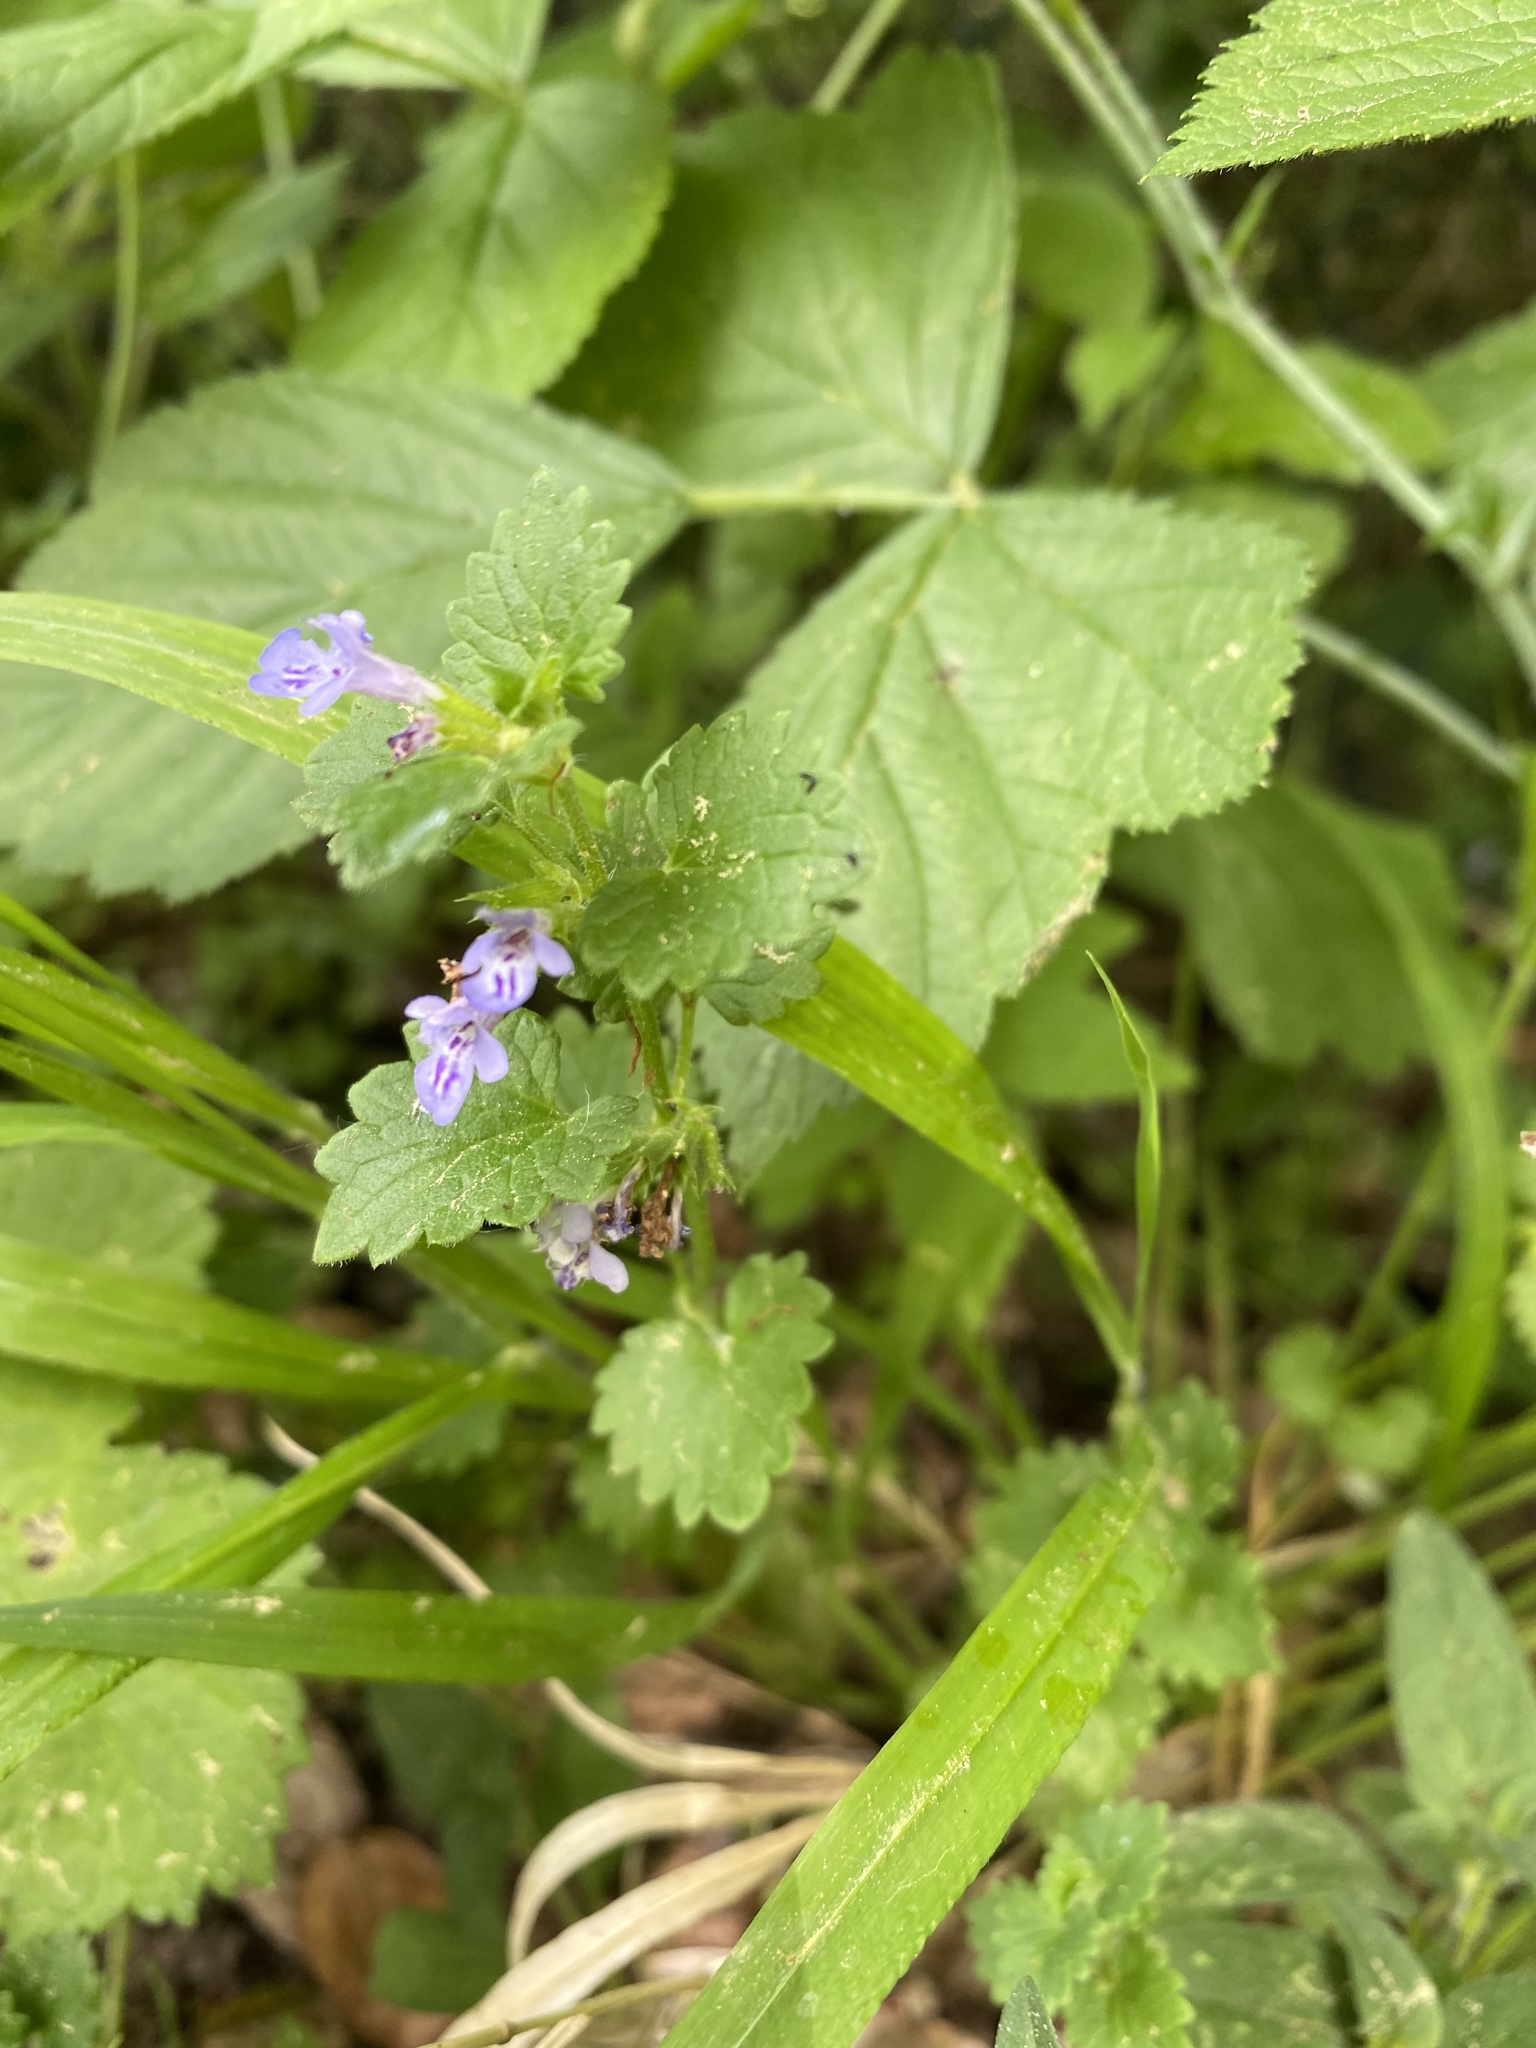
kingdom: Plantae
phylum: Tracheophyta
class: Magnoliopsida
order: Lamiales
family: Lamiaceae
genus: Glechoma
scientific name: Glechoma hederacea
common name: Ground ivy
